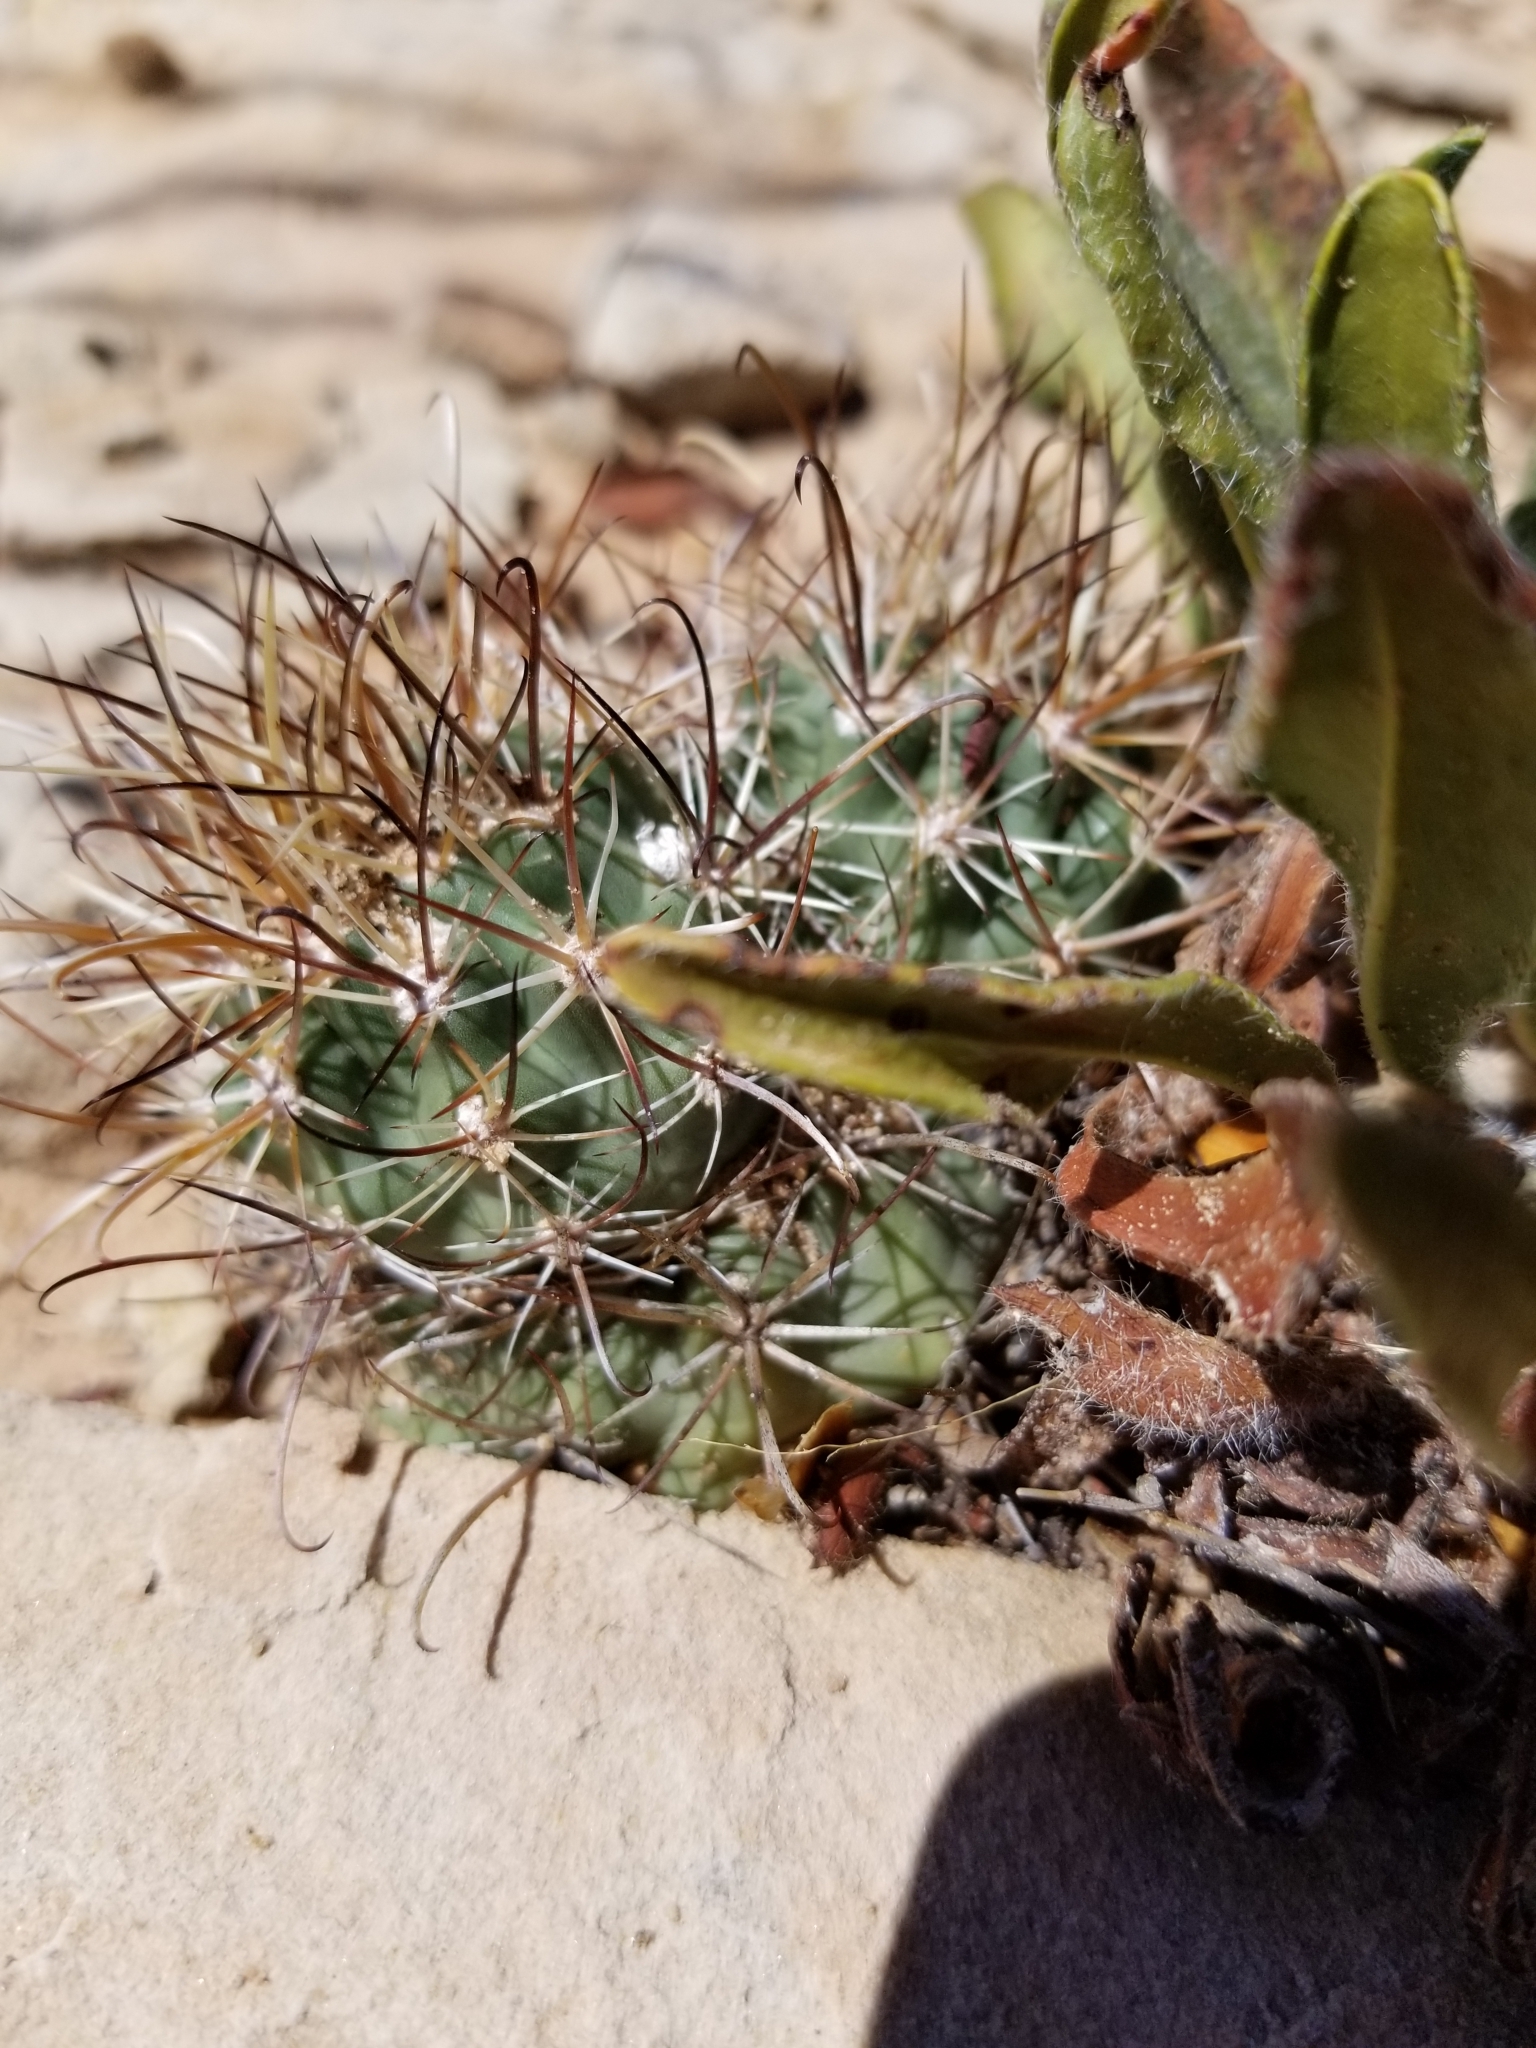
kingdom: Plantae
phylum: Tracheophyta
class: Magnoliopsida
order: Caryophyllales
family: Cactaceae
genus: Sclerocactus
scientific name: Sclerocactus parviflorus
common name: Small-flower fishhook cactus
